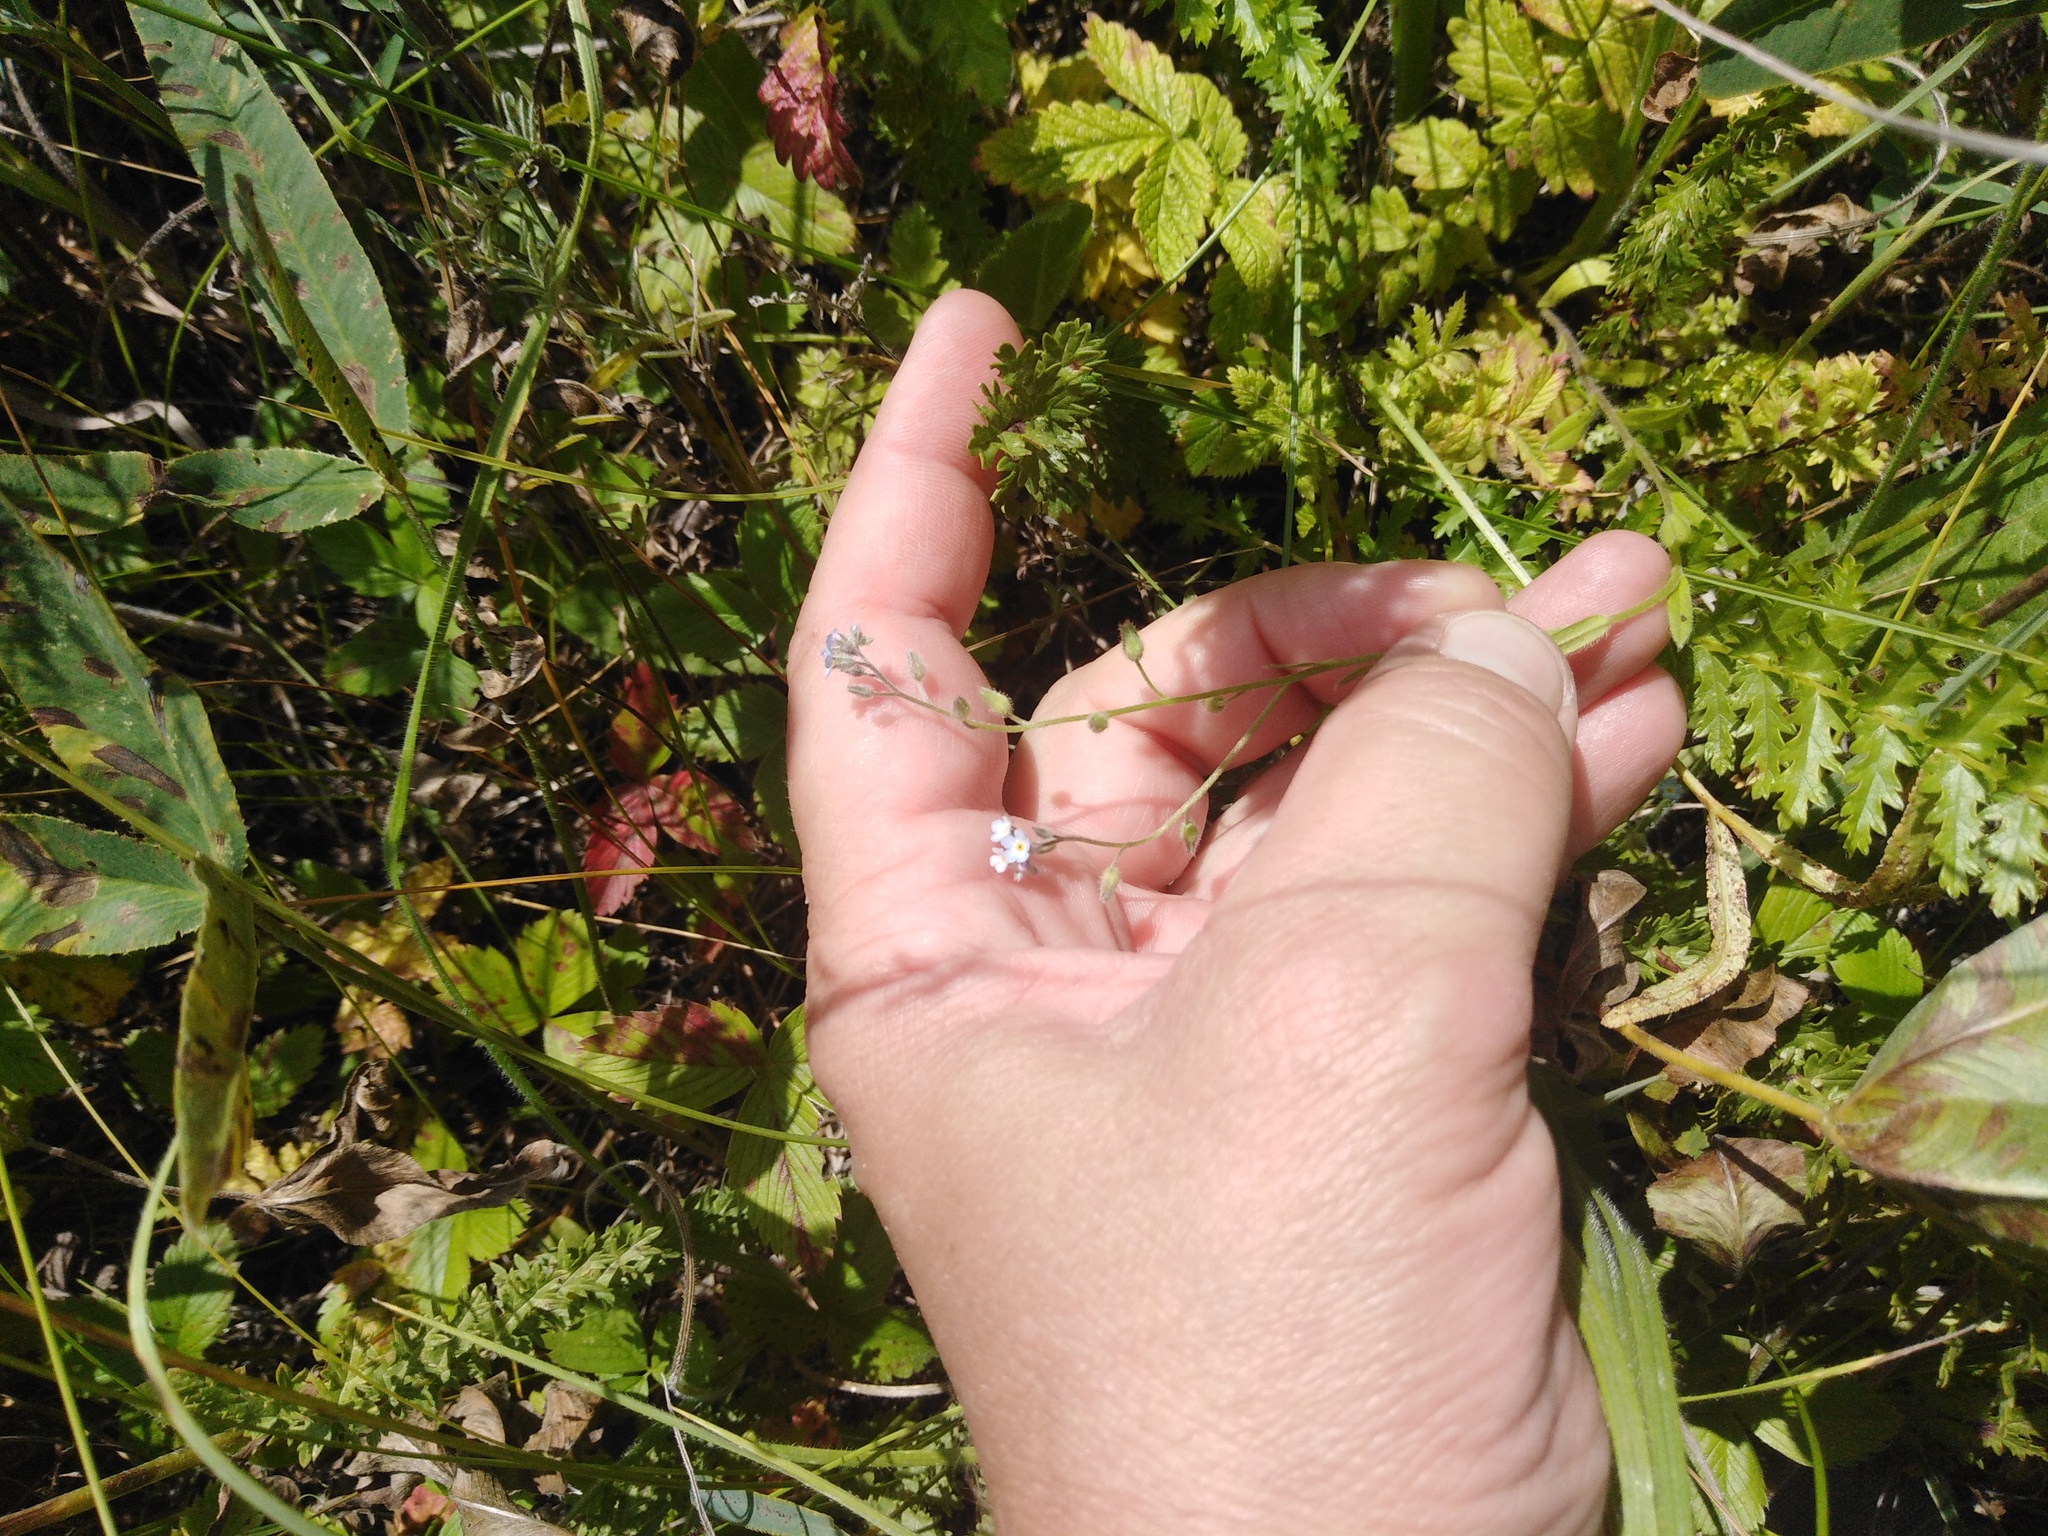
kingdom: Plantae
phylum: Tracheophyta
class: Magnoliopsida
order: Boraginales
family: Boraginaceae
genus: Myosotis
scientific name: Myosotis arvensis
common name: Field forget-me-not
